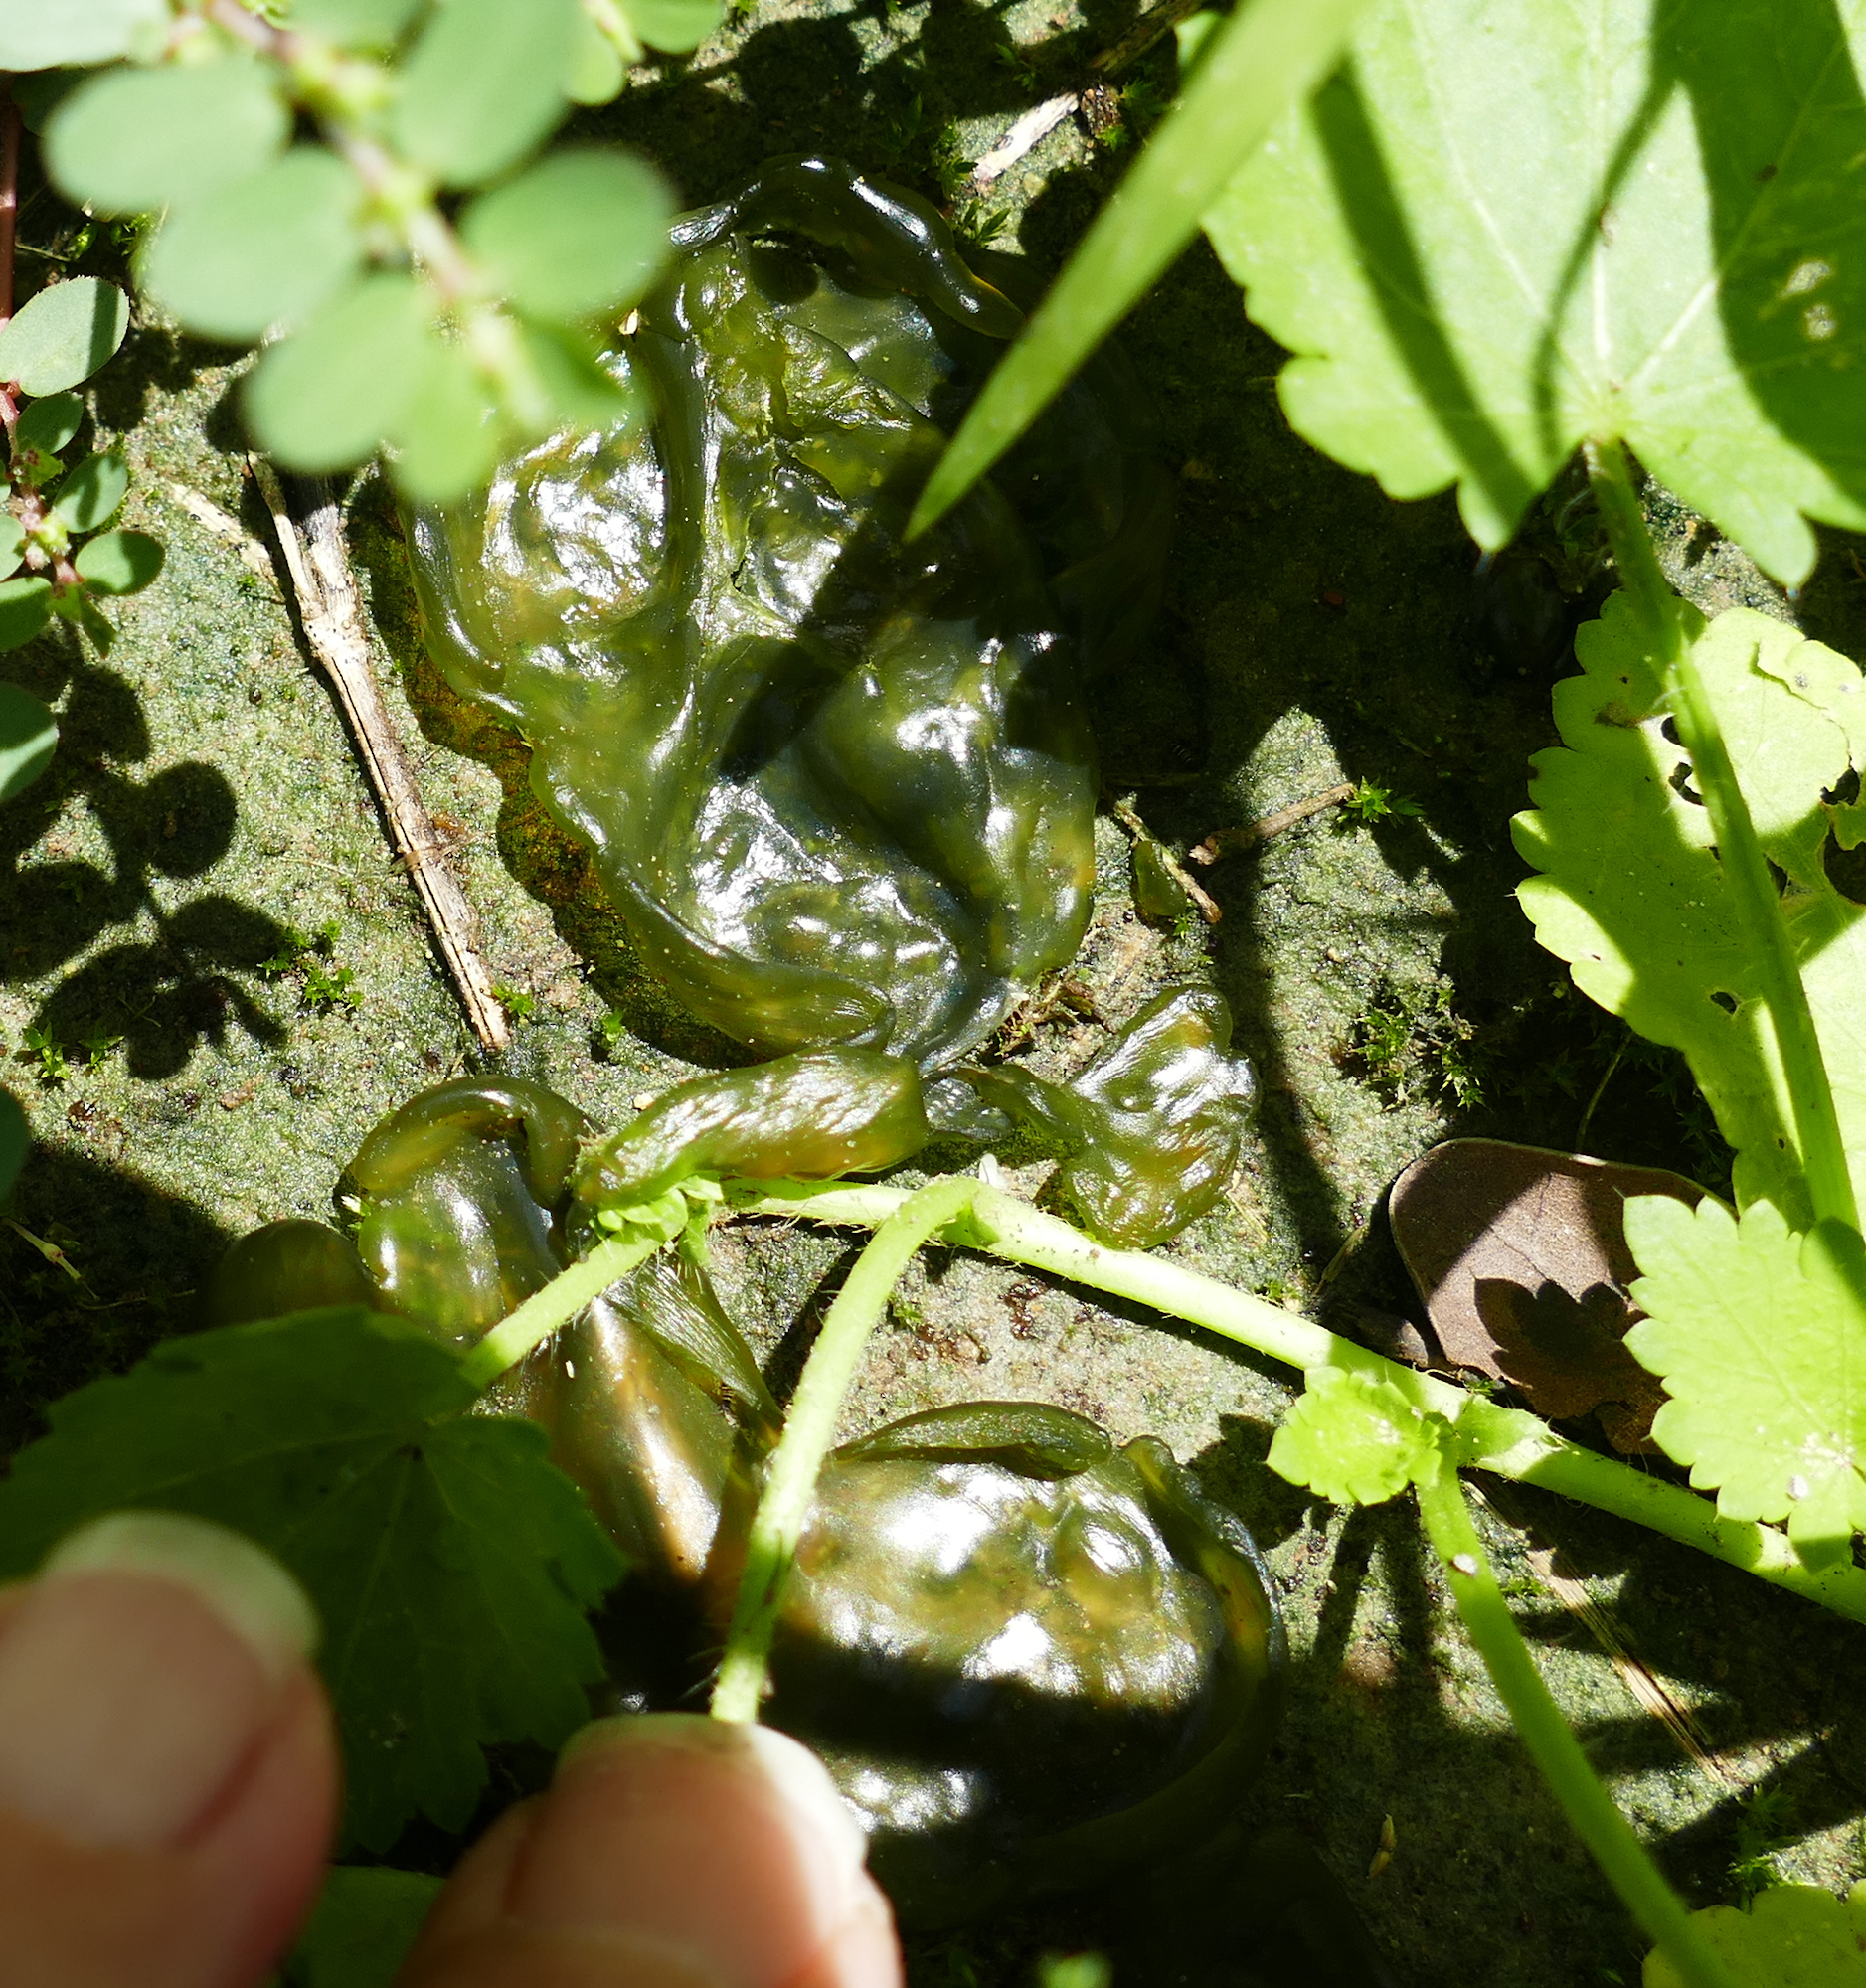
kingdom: Bacteria
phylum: Cyanobacteria
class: Cyanobacteriia
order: Cyanobacteriales
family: Nostocaceae
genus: Nostoc
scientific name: Nostoc commune
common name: Star jelly
